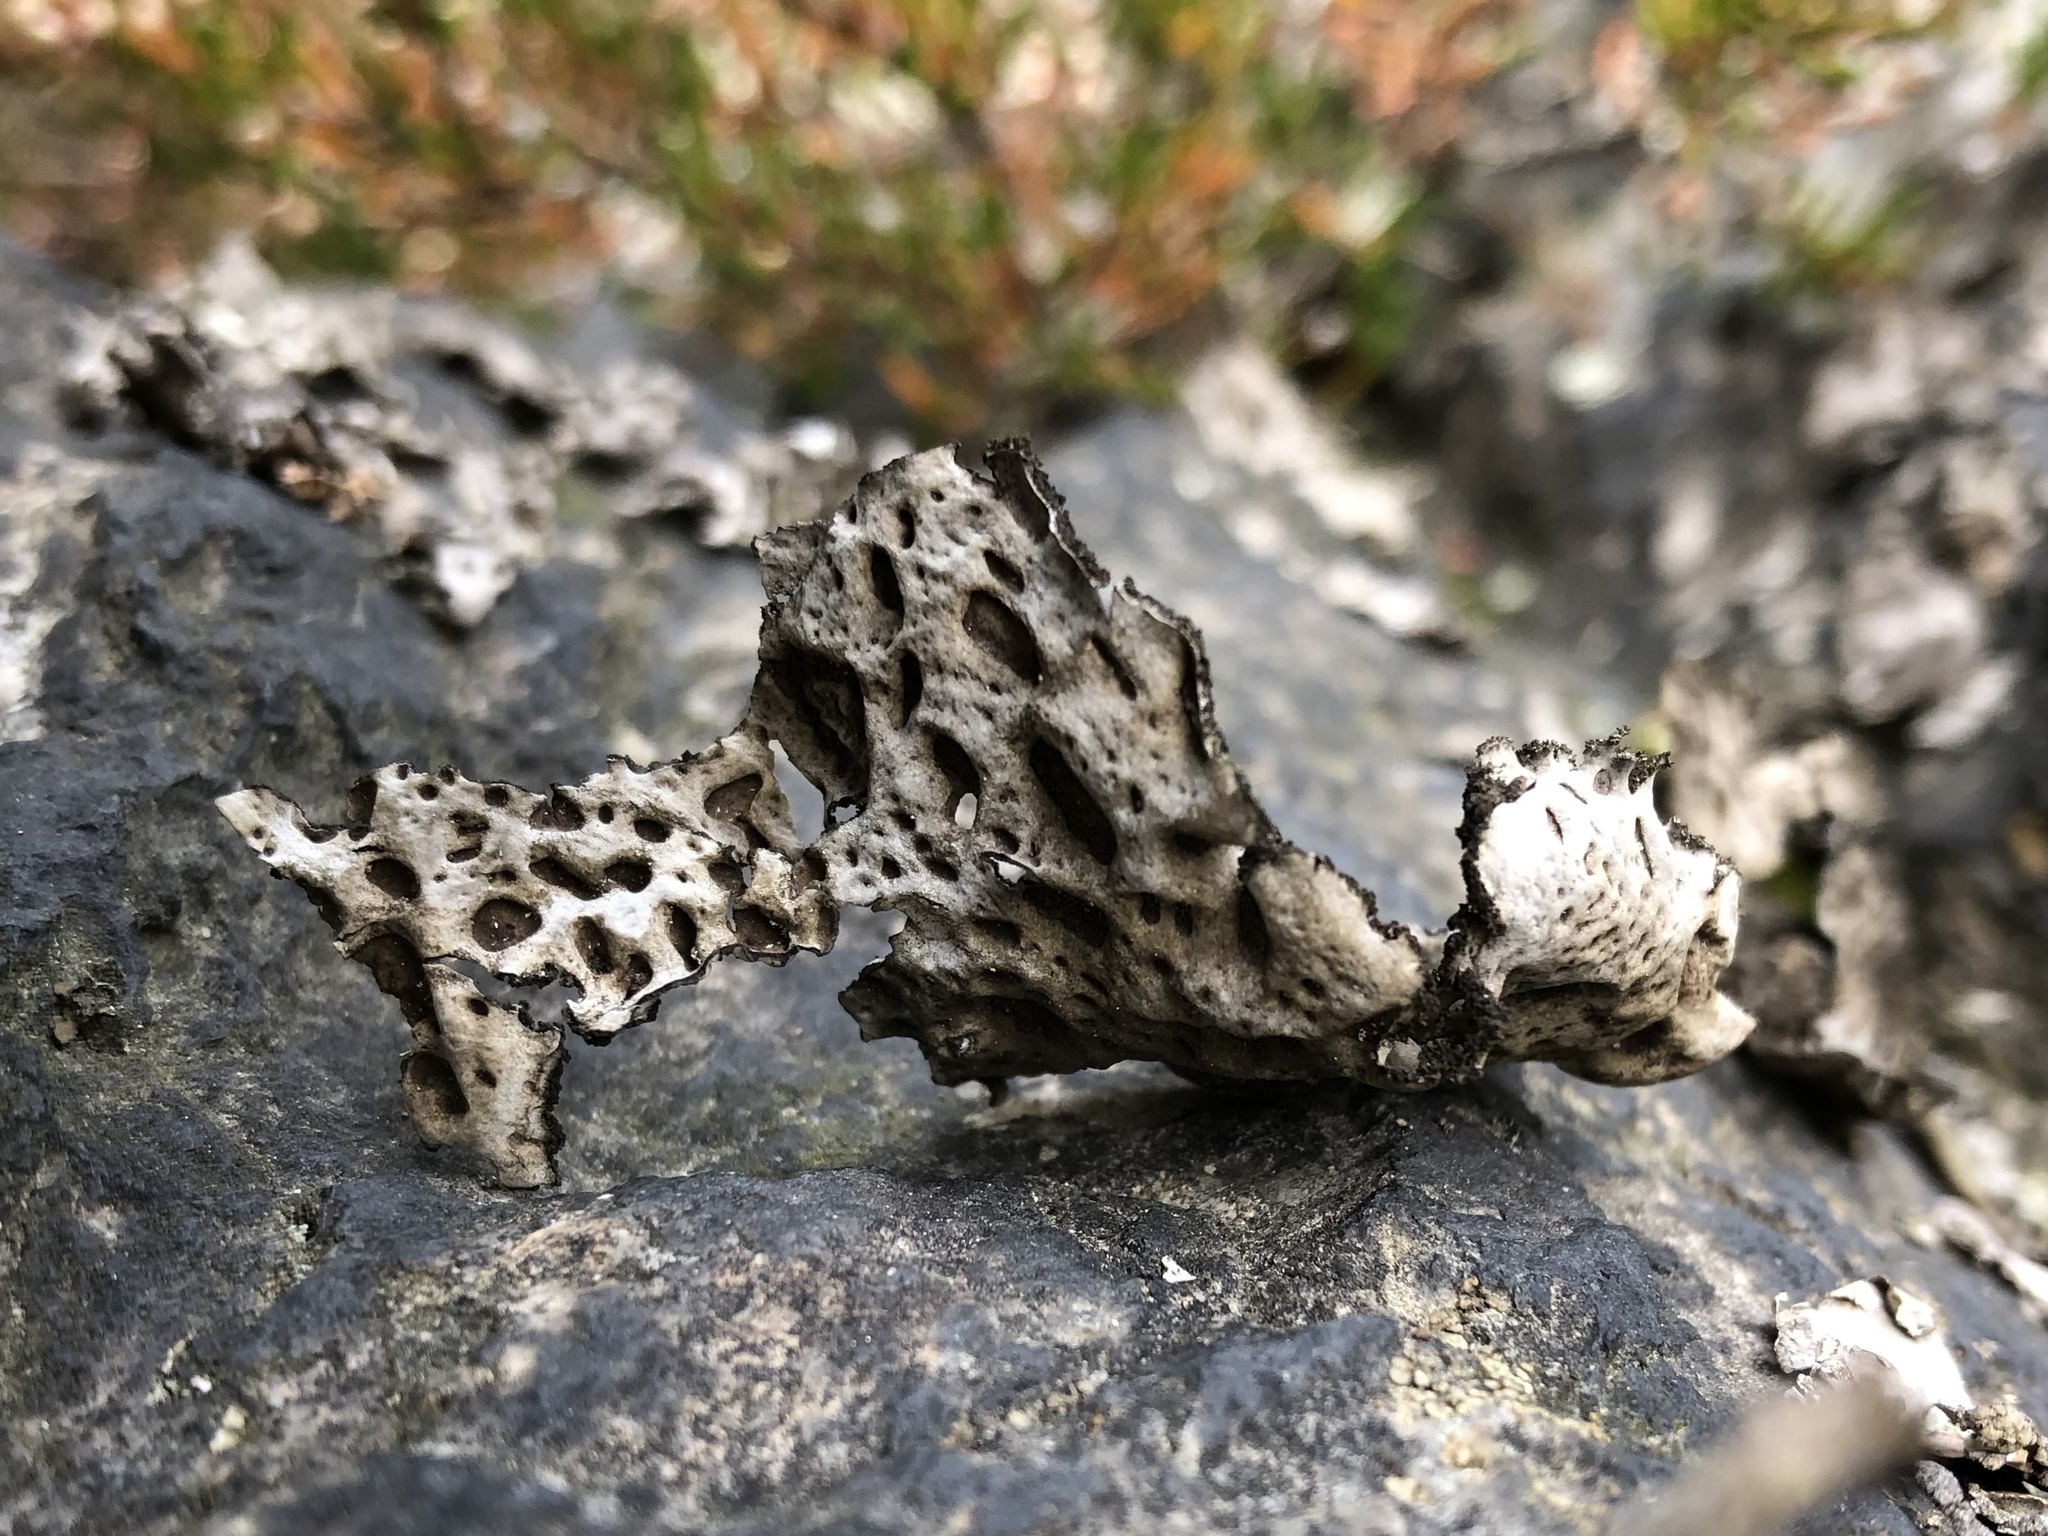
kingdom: Fungi
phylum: Ascomycota
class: Lecanoromycetes
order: Umbilicariales
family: Umbilicariaceae
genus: Lasallia
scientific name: Lasallia pustulata
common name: Blistered toadskin lichen
